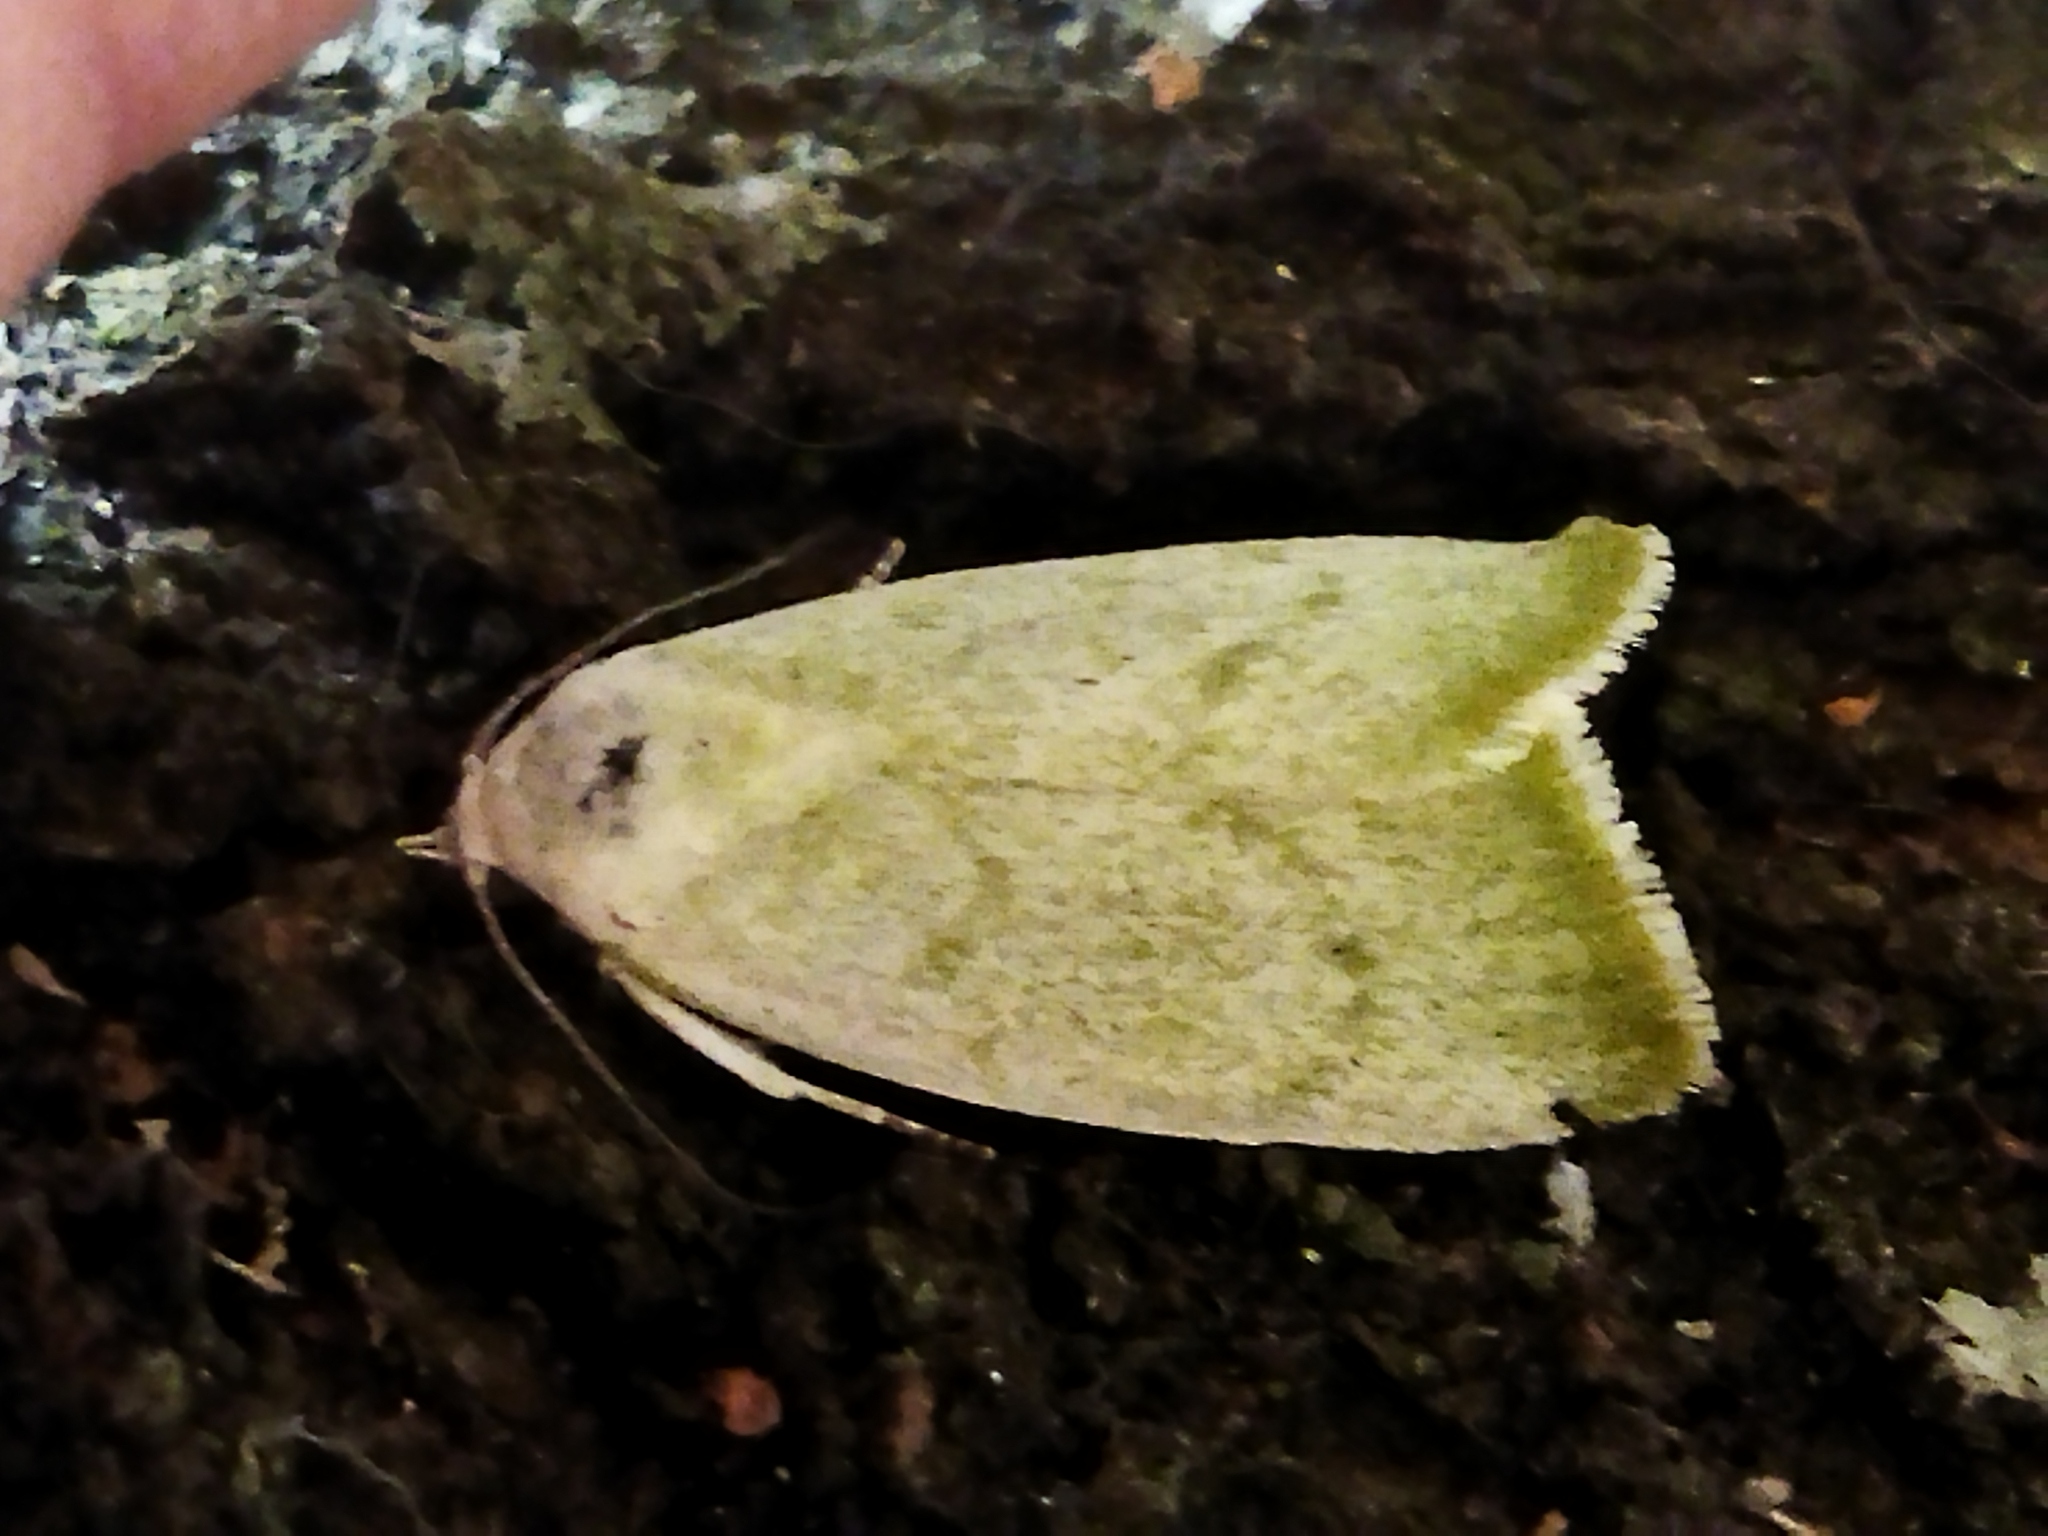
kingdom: Animalia
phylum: Arthropoda
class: Insecta
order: Lepidoptera
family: Nolidae
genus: Earias
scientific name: Earias vernana
